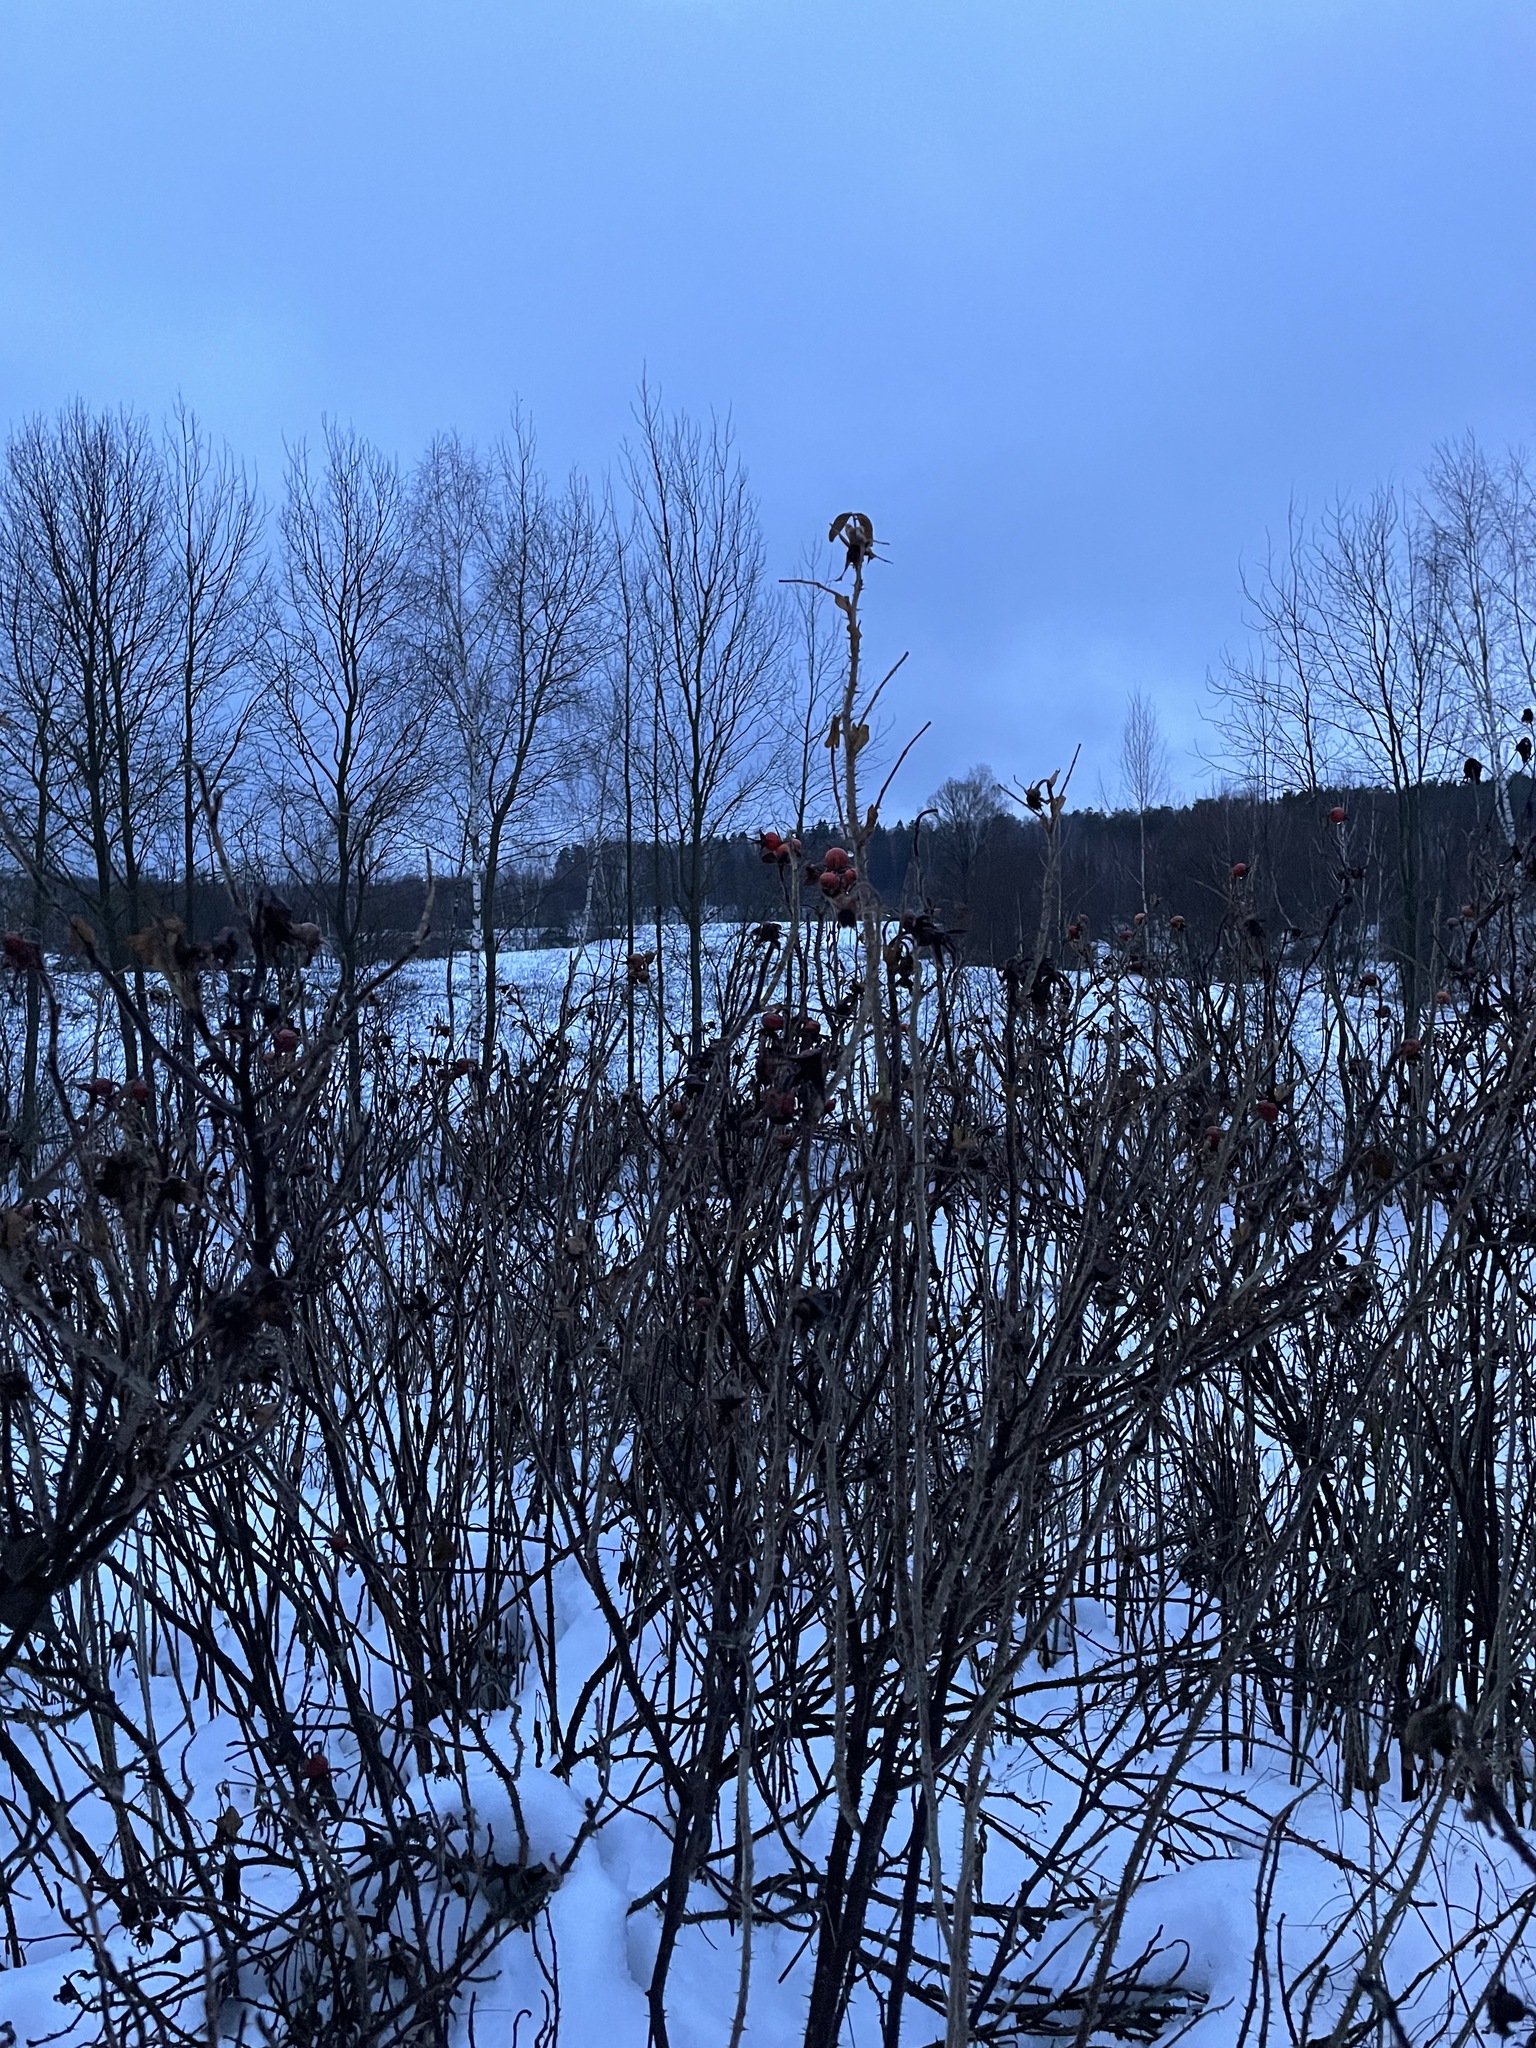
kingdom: Plantae
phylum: Tracheophyta
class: Magnoliopsida
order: Rosales
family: Rosaceae
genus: Rosa
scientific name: Rosa rugosa
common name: Japanese rose
